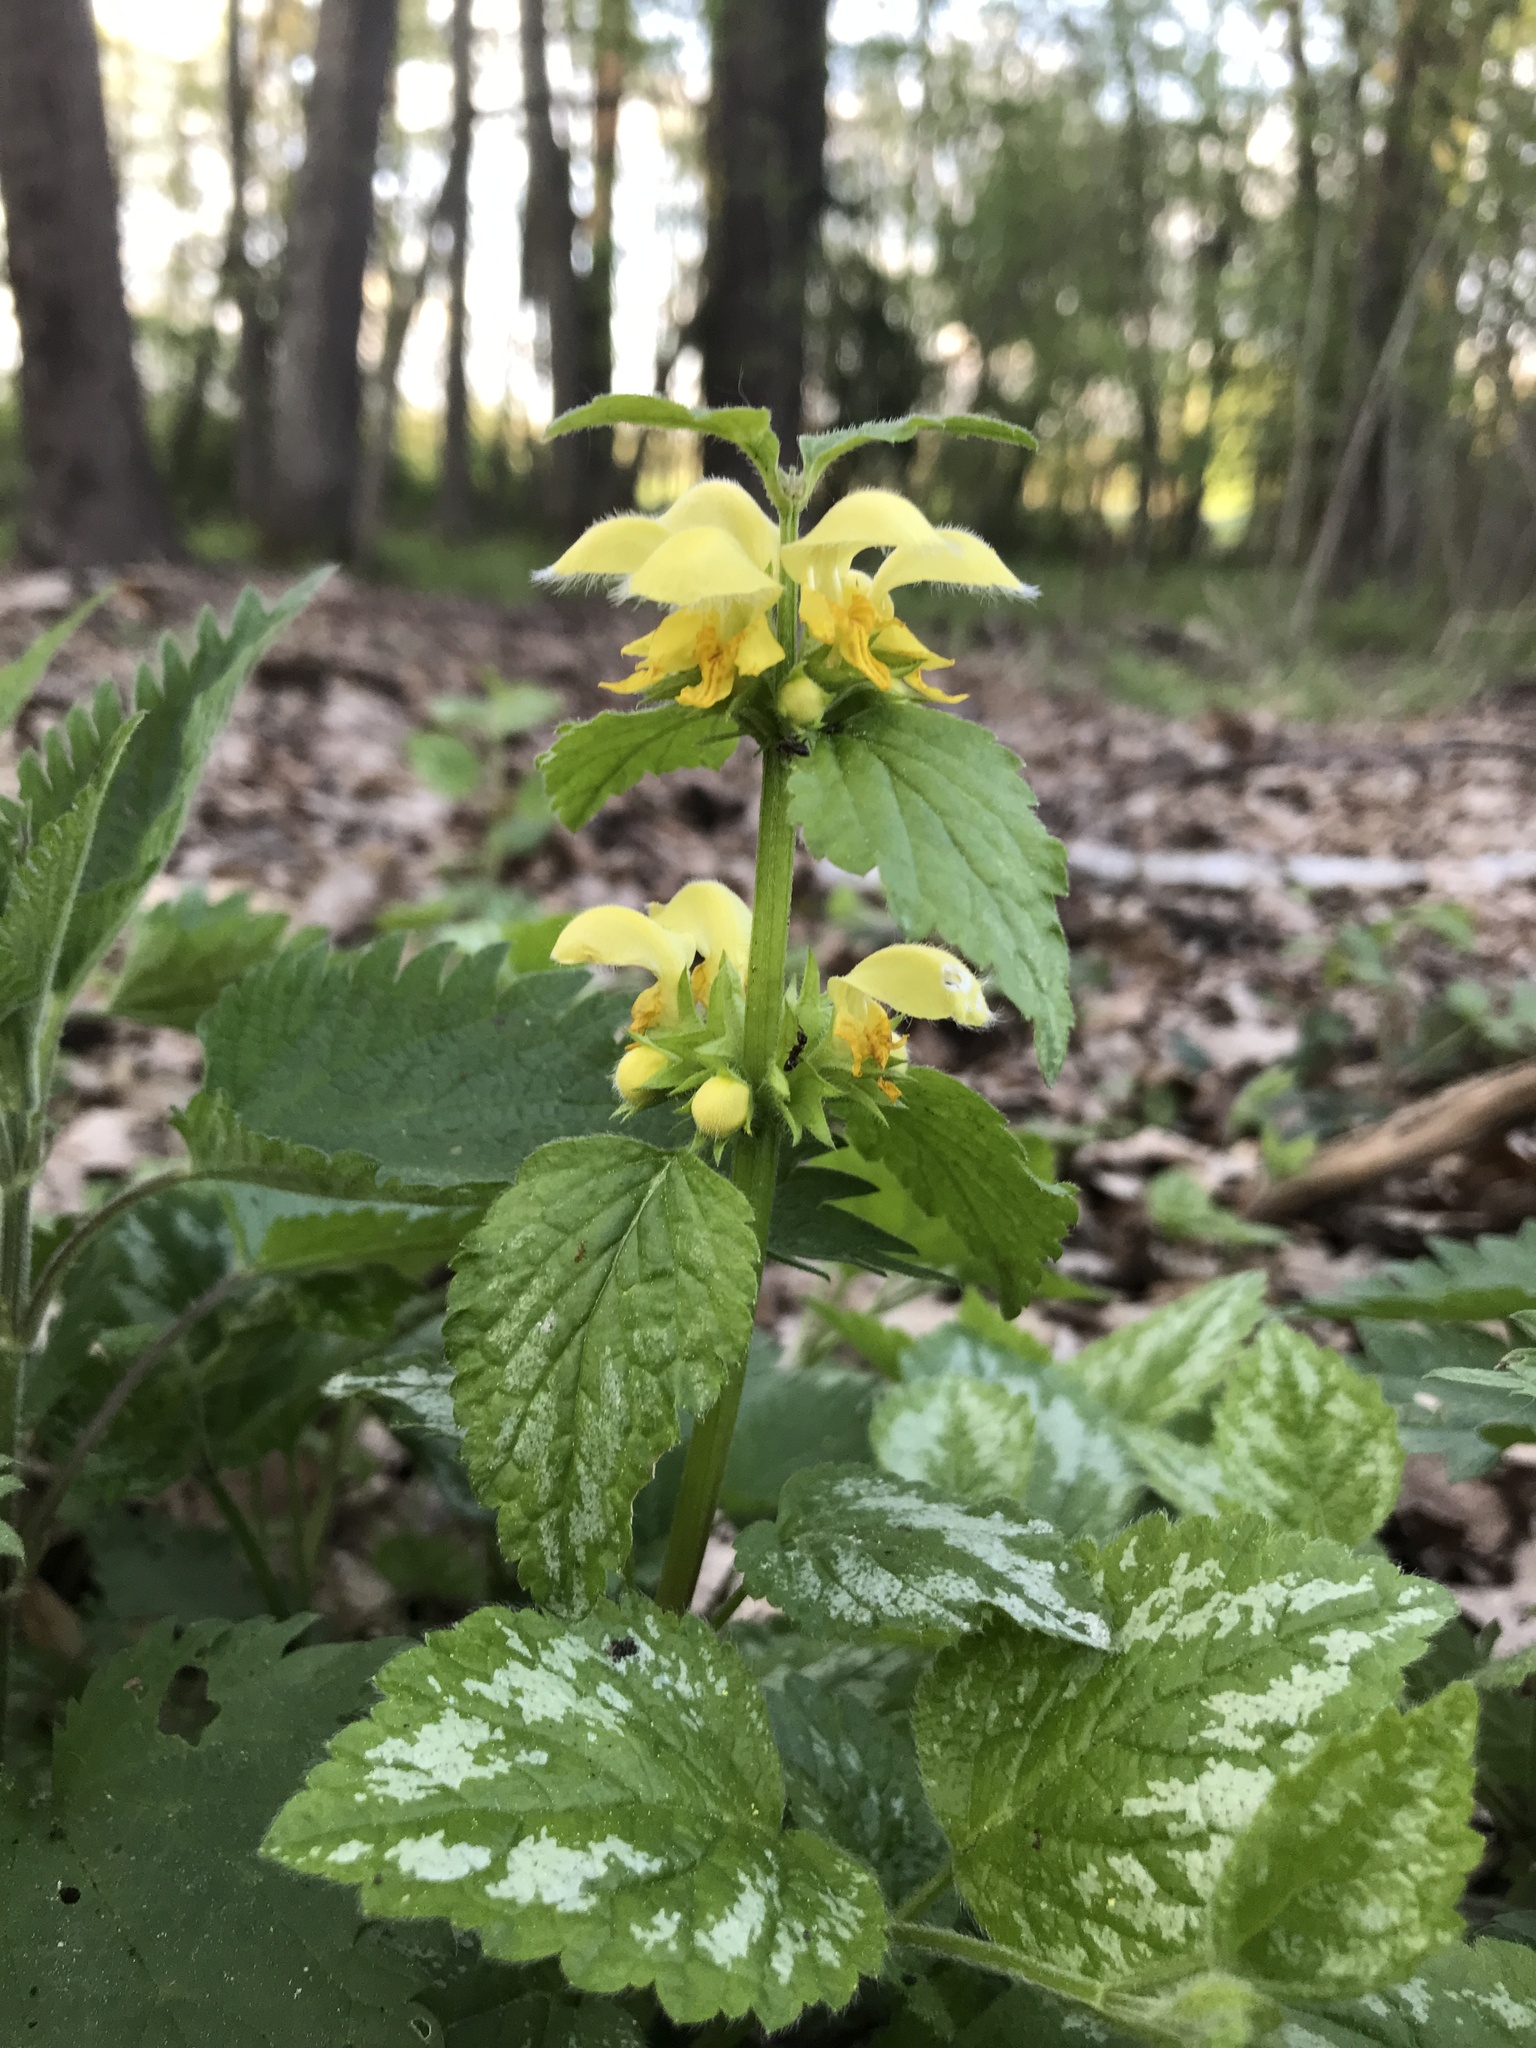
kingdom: Plantae
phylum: Tracheophyta
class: Magnoliopsida
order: Lamiales
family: Lamiaceae
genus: Lamium
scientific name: Lamium galeobdolon
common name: Yellow archangel
